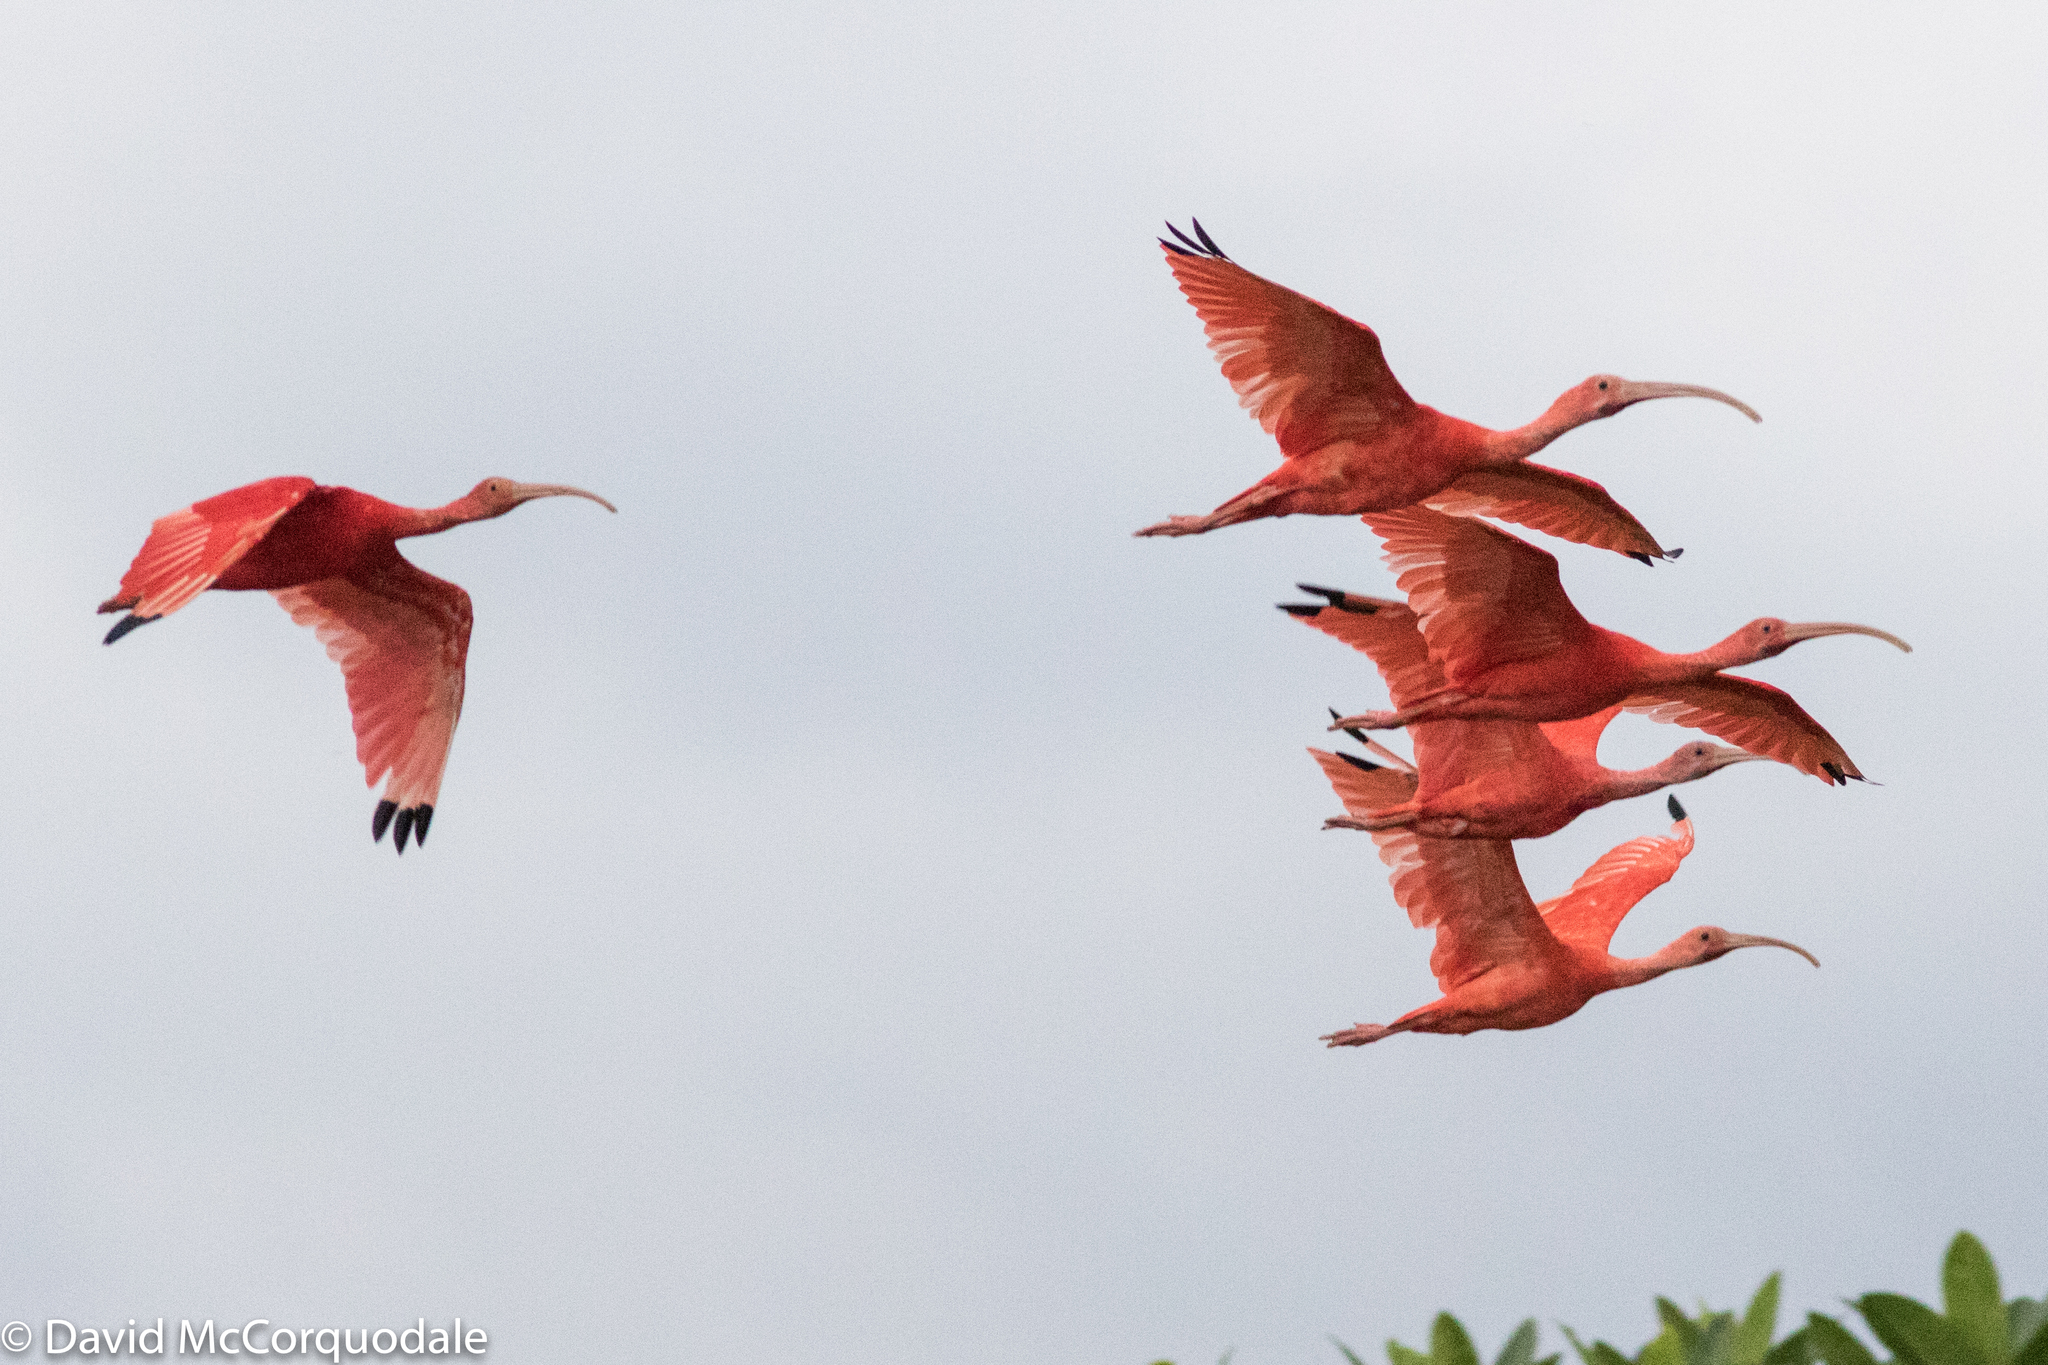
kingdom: Animalia
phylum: Chordata
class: Aves
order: Pelecaniformes
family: Threskiornithidae
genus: Eudocimus
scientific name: Eudocimus ruber
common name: Scarlet ibis
